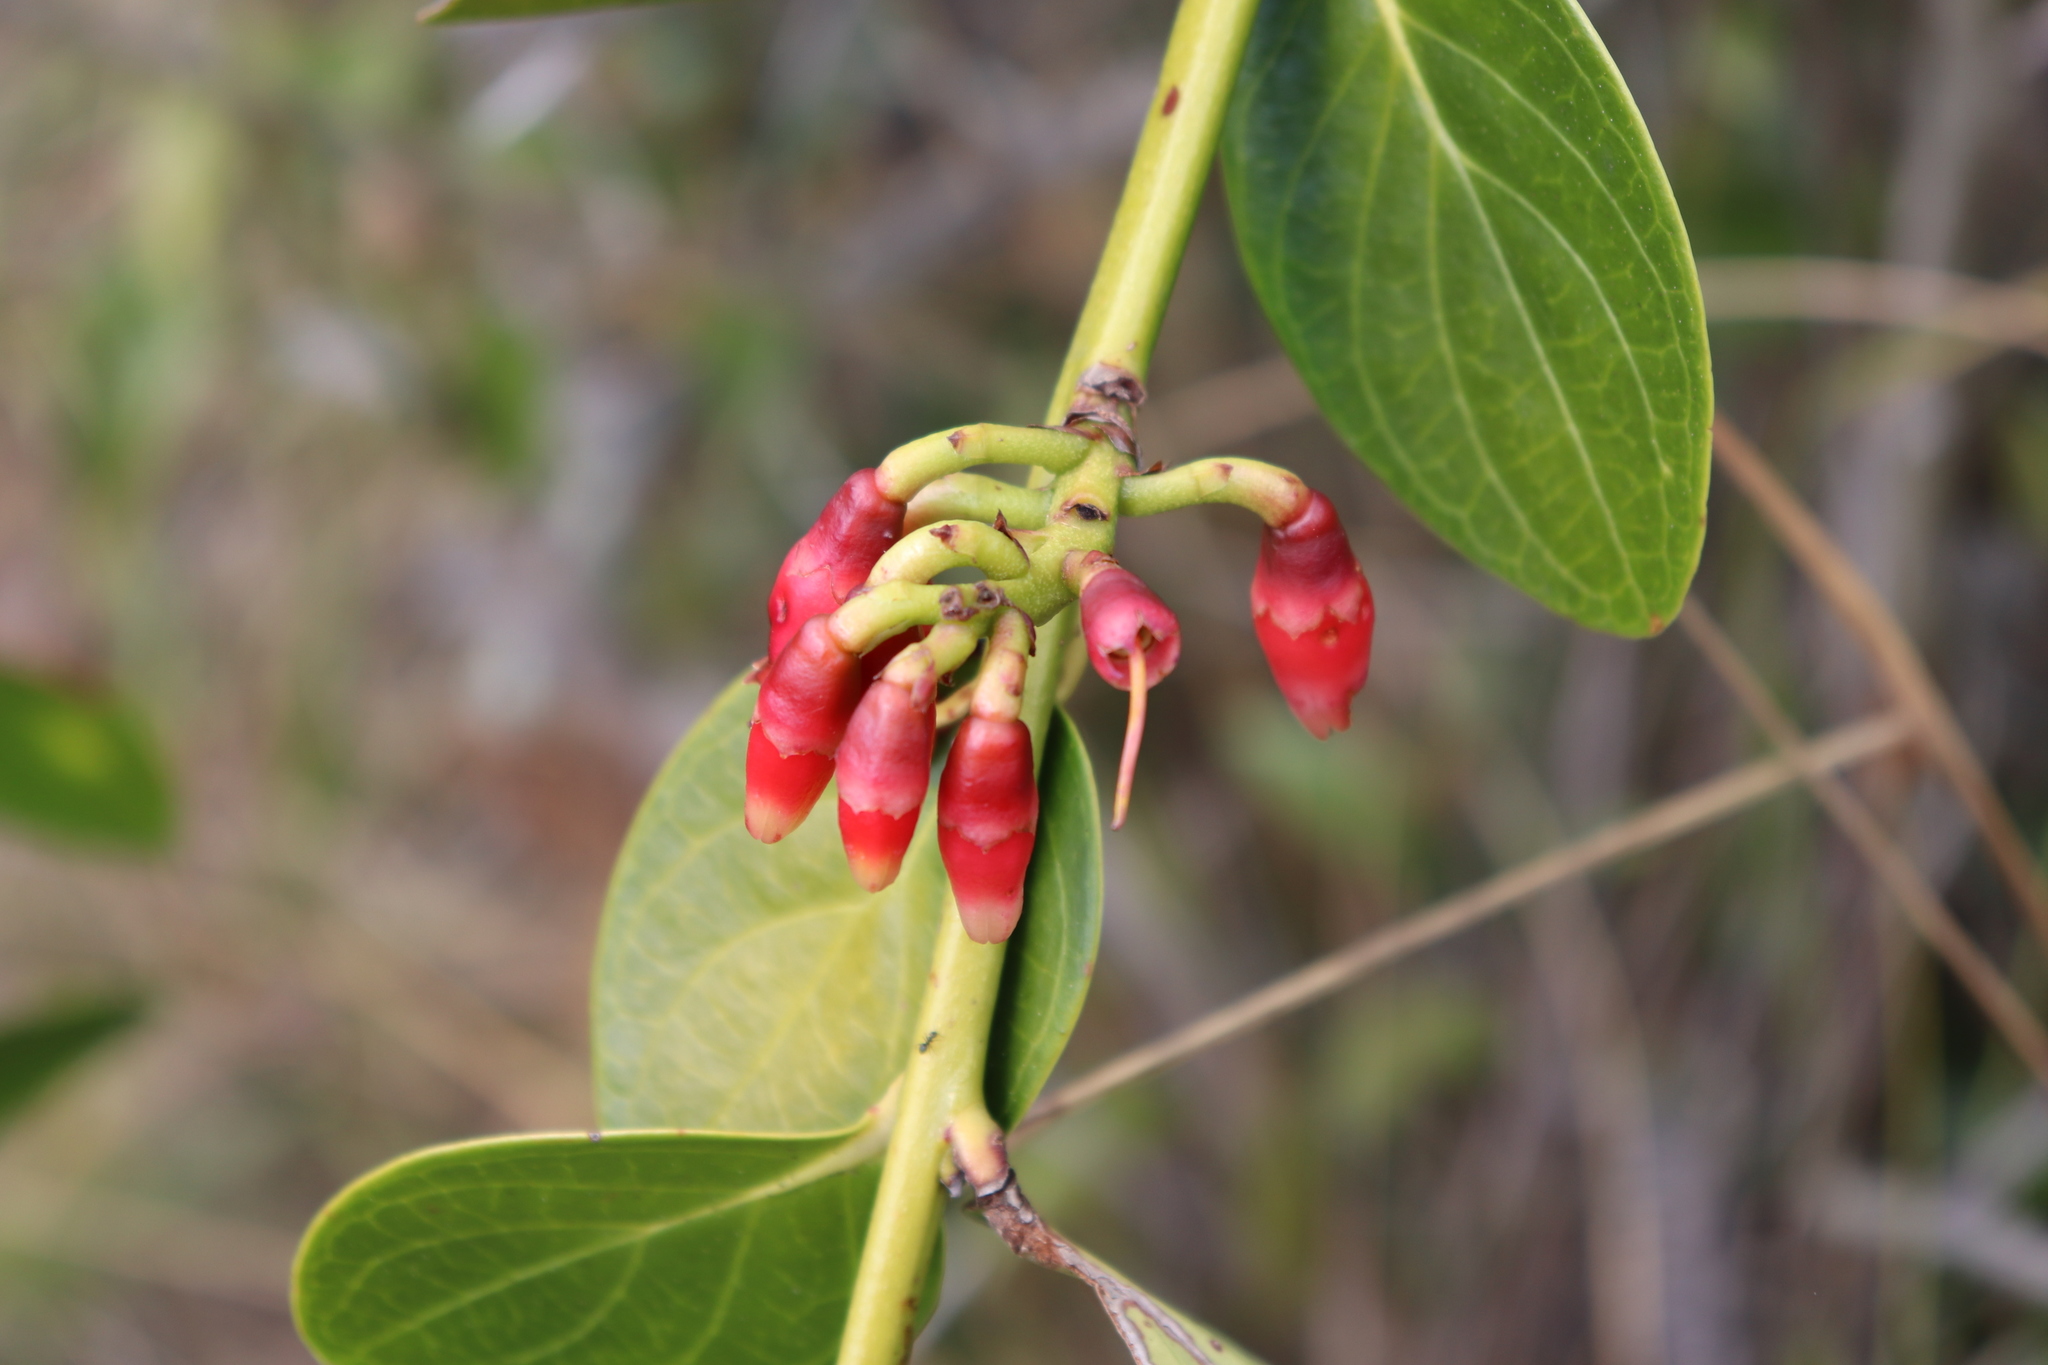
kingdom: Plantae
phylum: Tracheophyta
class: Magnoliopsida
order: Ericales
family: Ericaceae
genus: Macleania
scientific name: Macleania rupestris
